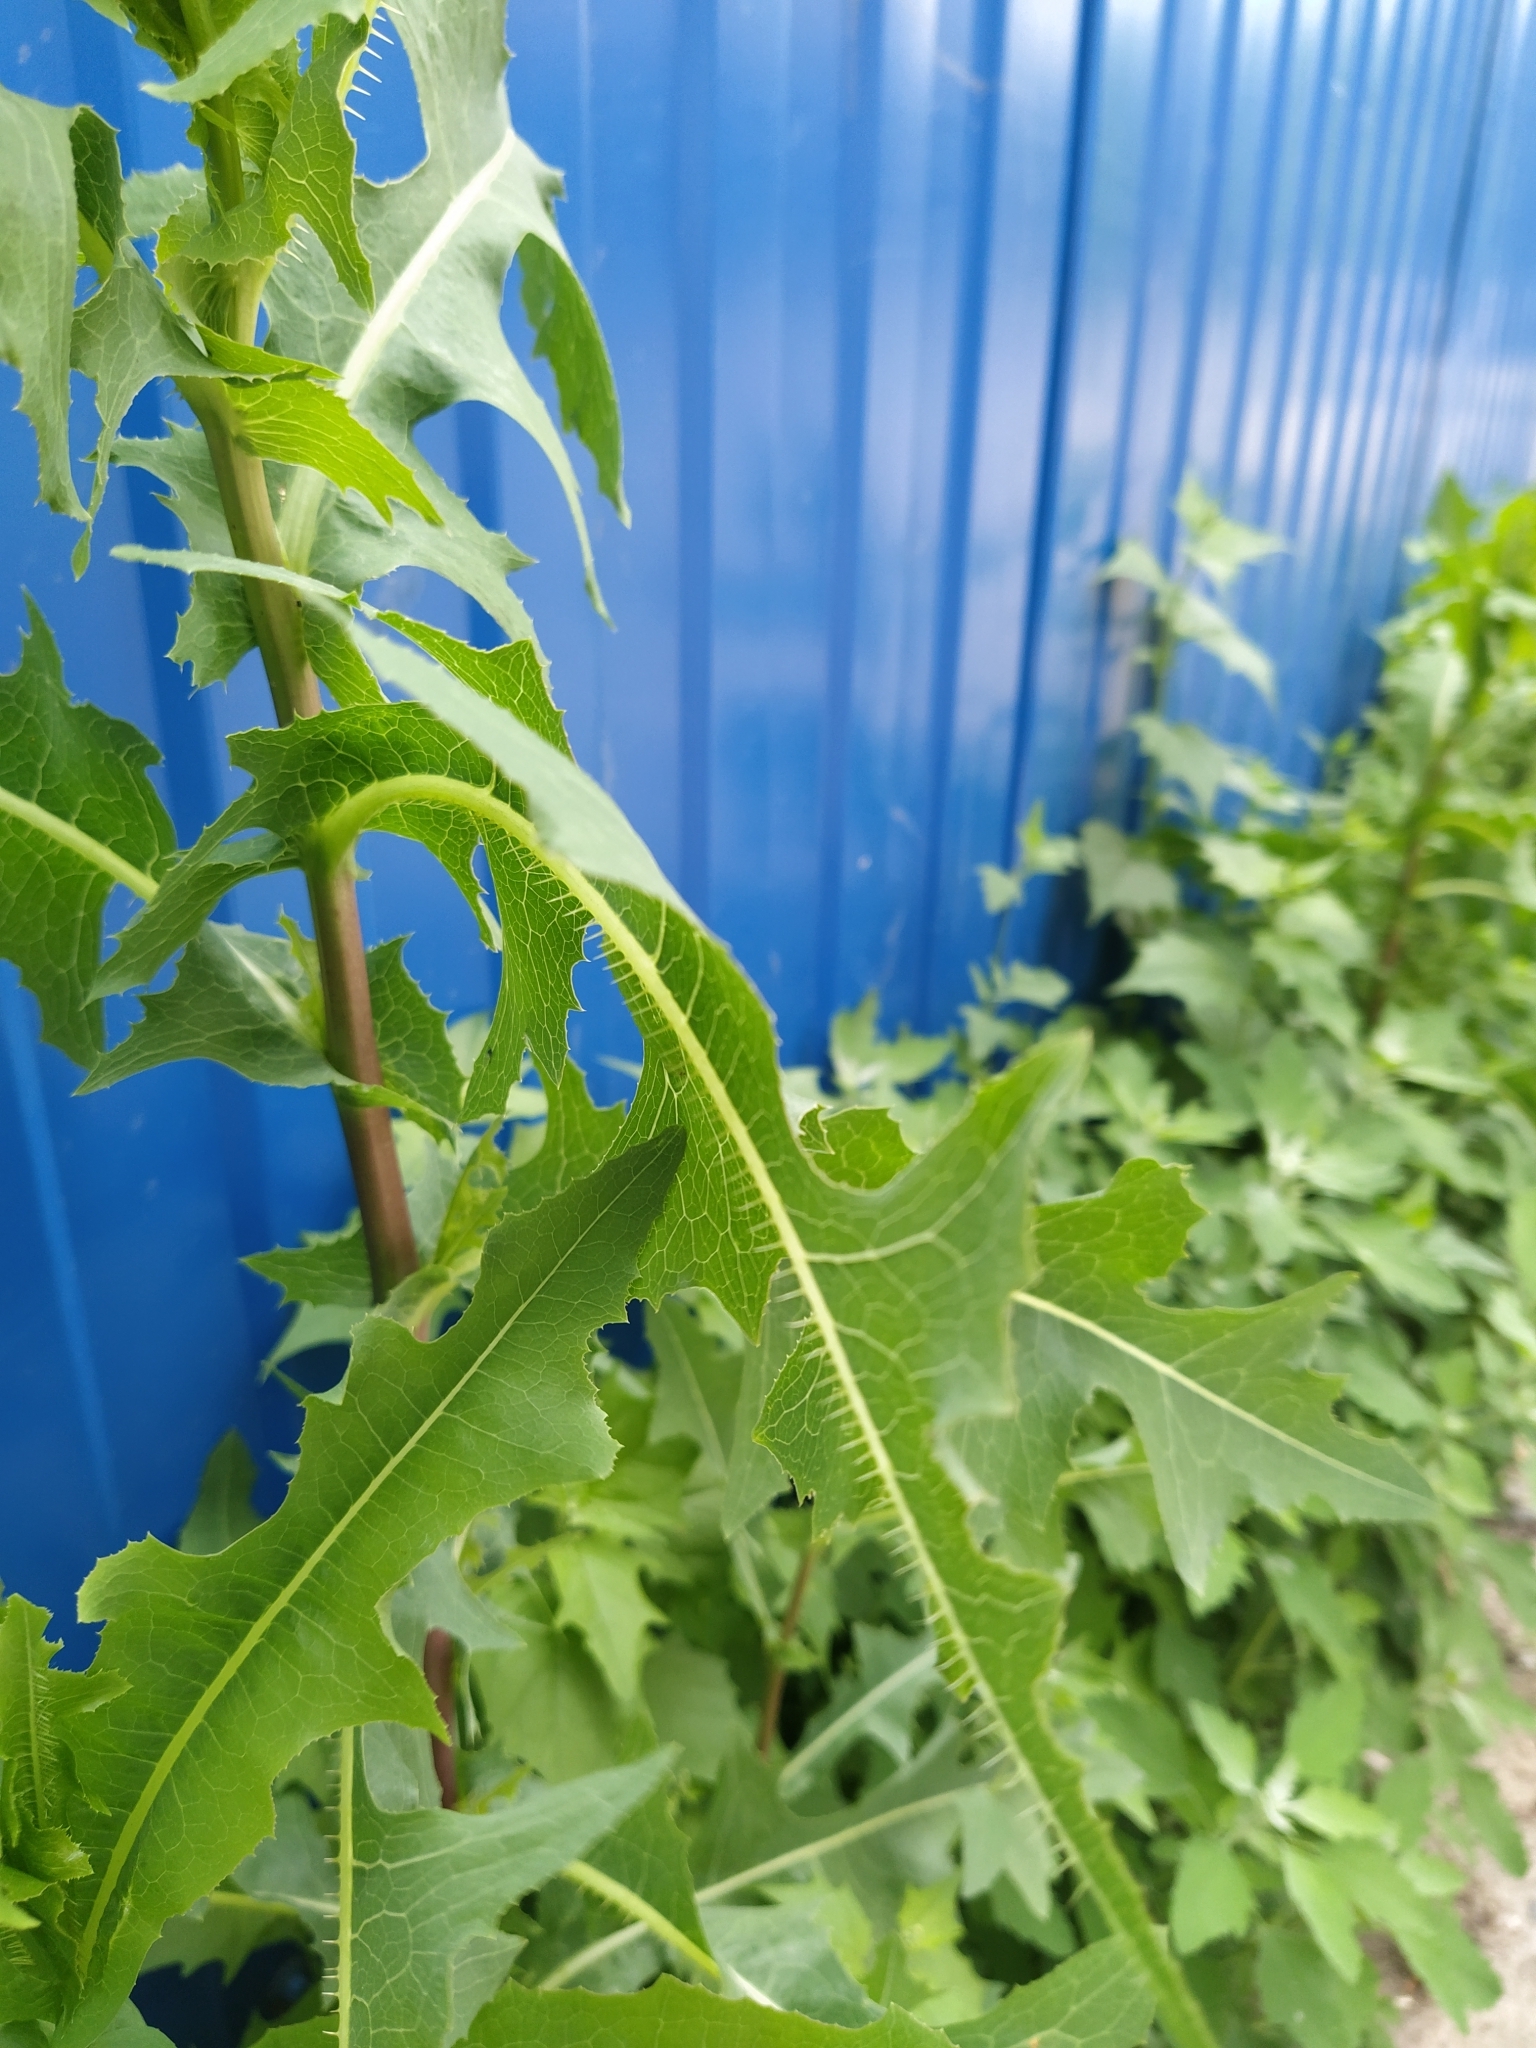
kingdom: Plantae
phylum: Tracheophyta
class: Magnoliopsida
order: Asterales
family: Asteraceae
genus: Lactuca
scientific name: Lactuca serriola
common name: Prickly lettuce
